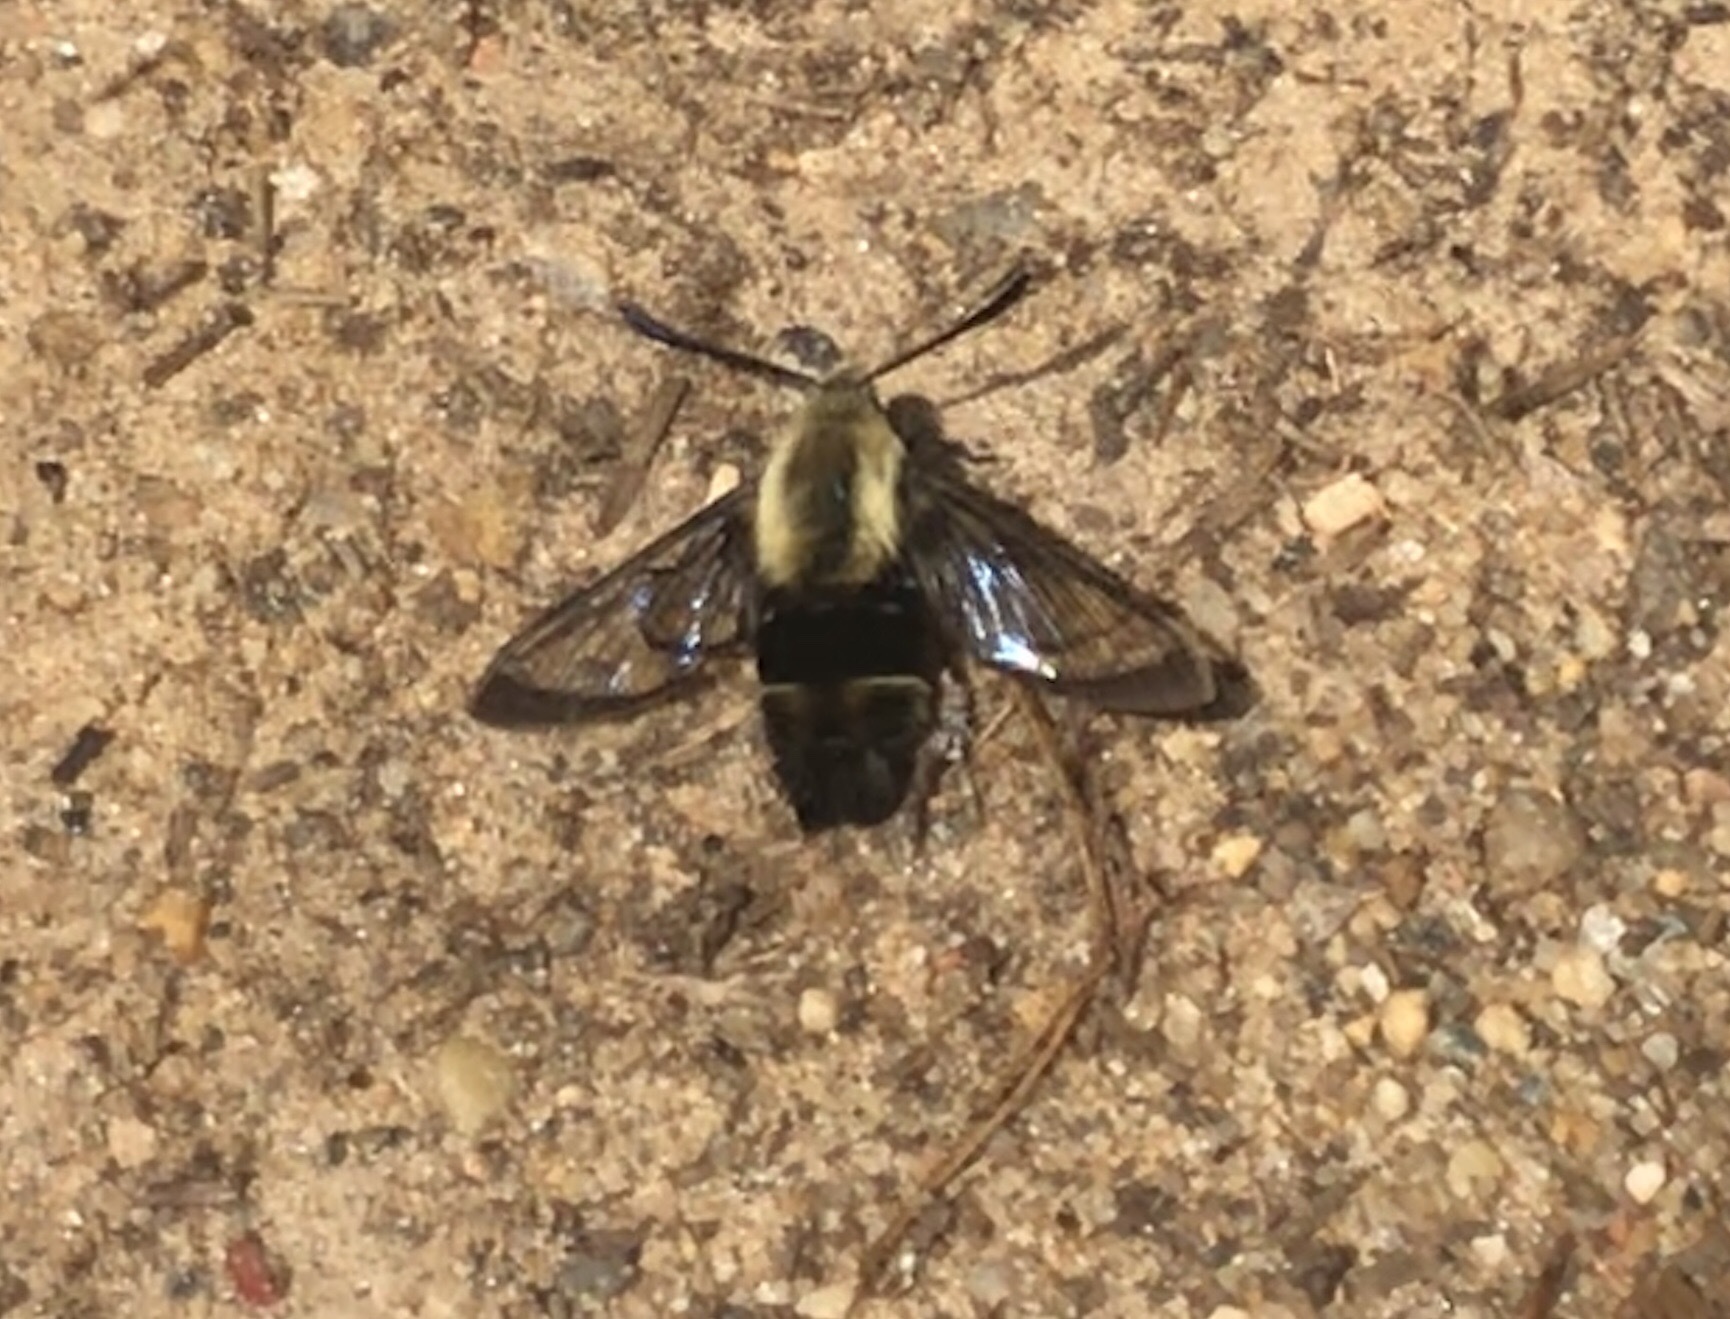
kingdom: Animalia
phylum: Arthropoda
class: Insecta
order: Lepidoptera
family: Sphingidae
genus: Hemaris
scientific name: Hemaris diffinis
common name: Bumblebee moth
